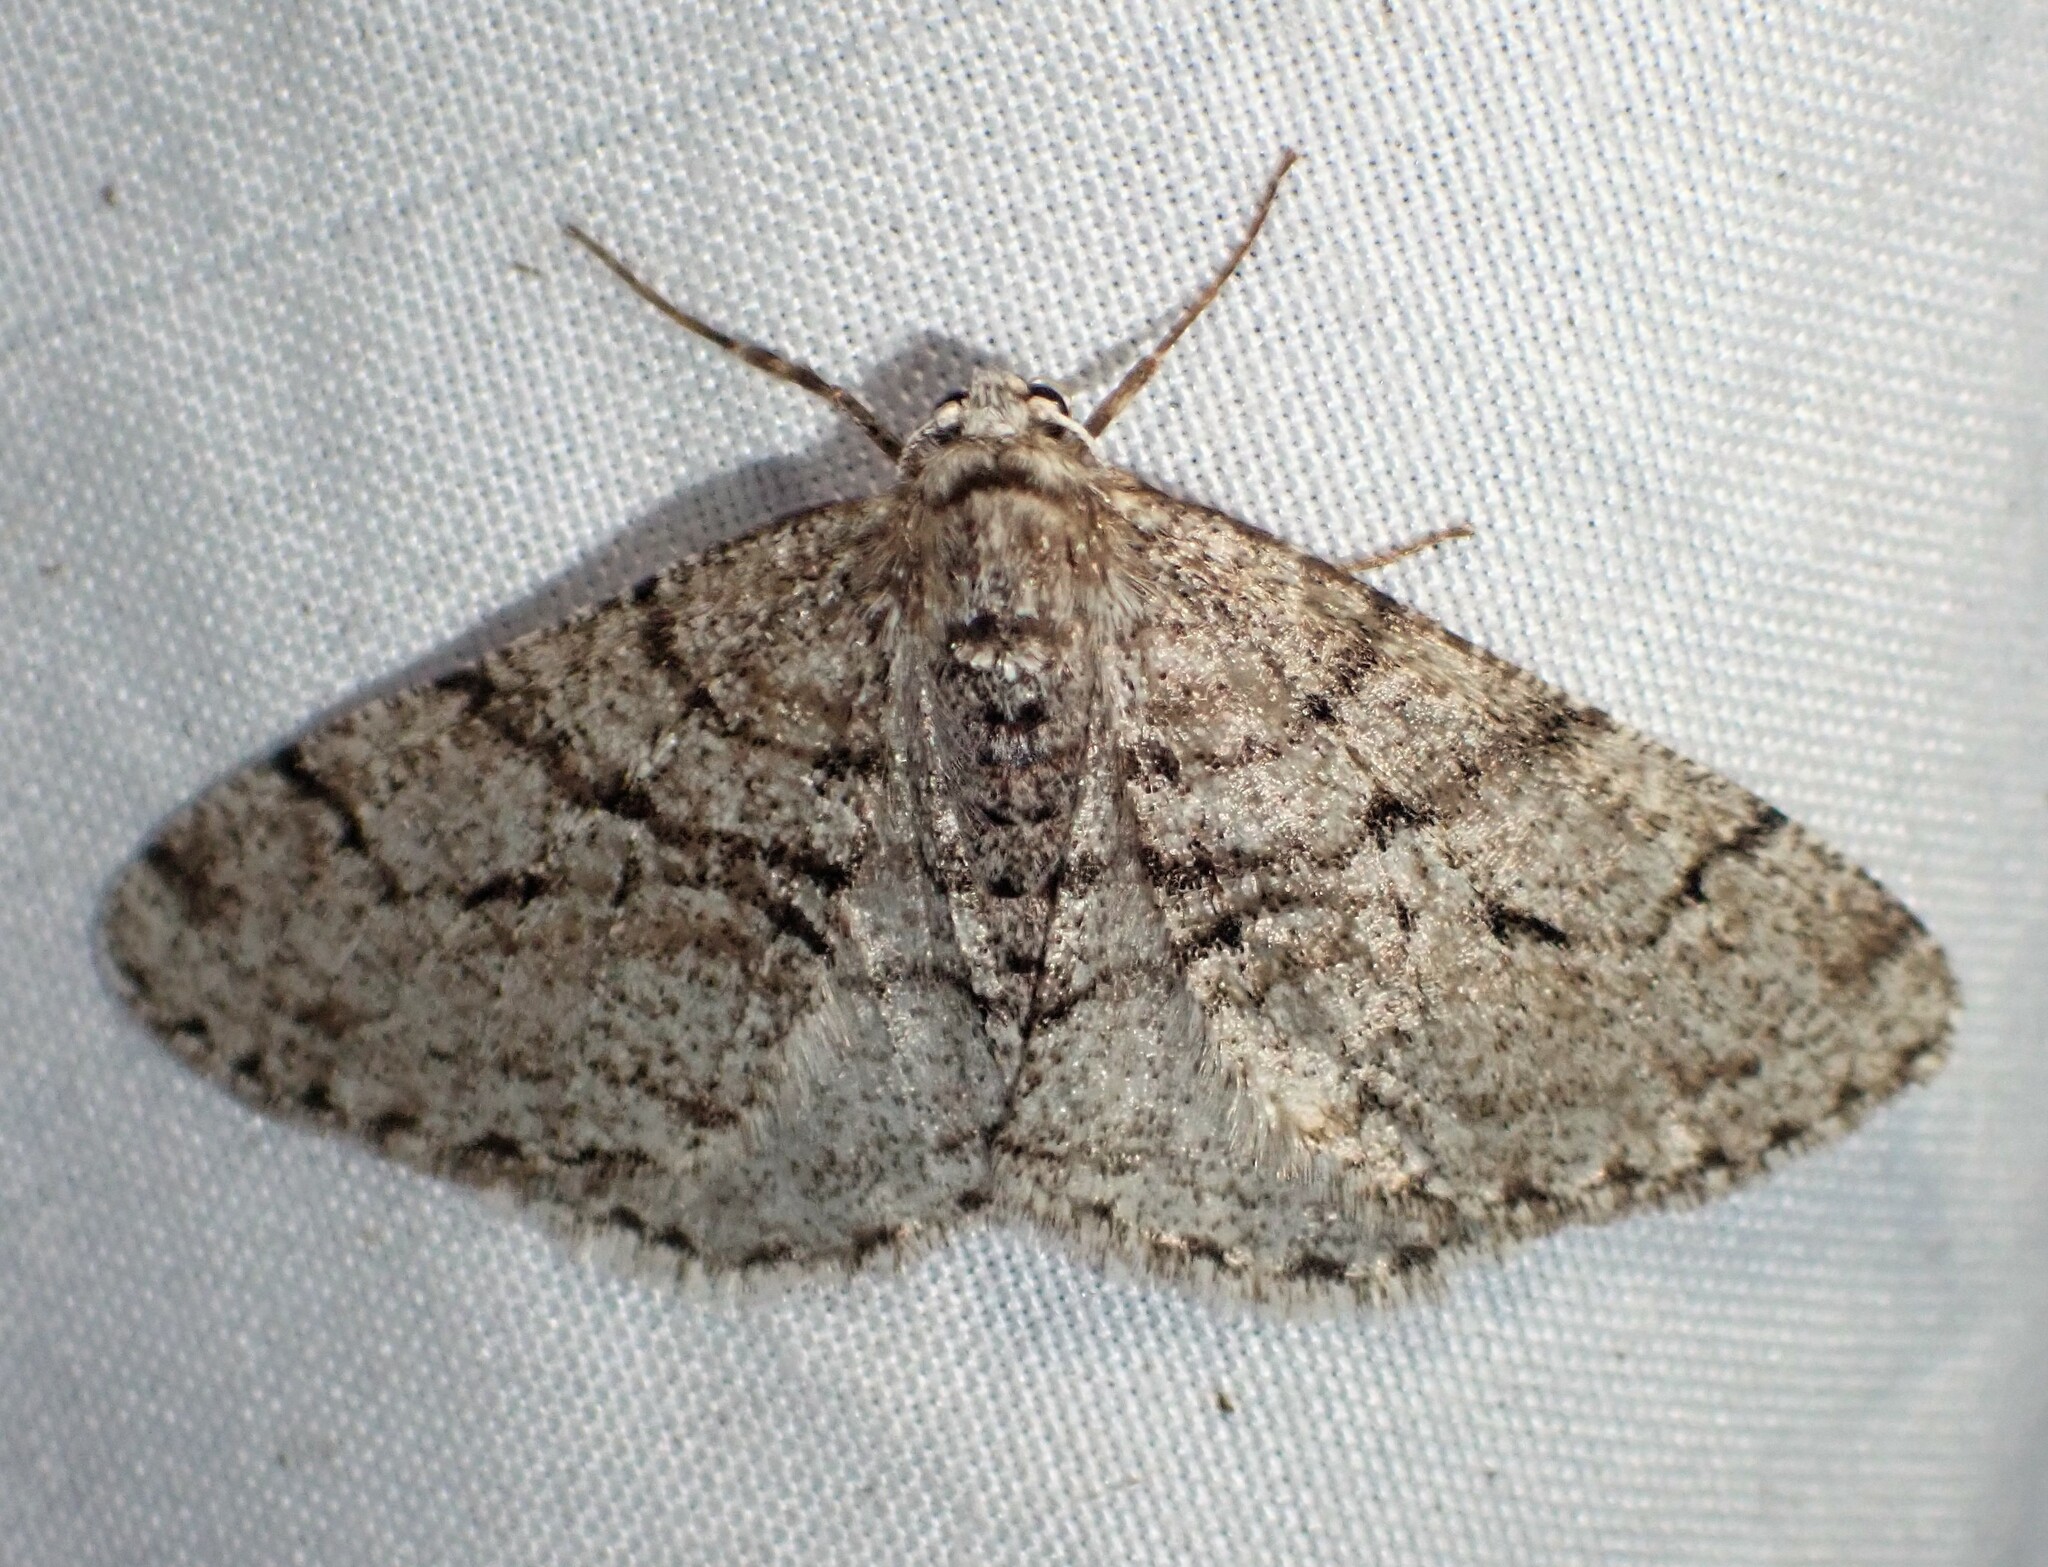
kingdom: Animalia
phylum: Arthropoda
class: Insecta
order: Lepidoptera
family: Geometridae
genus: Phigalia
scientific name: Phigalia titea
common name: Spiny looper
